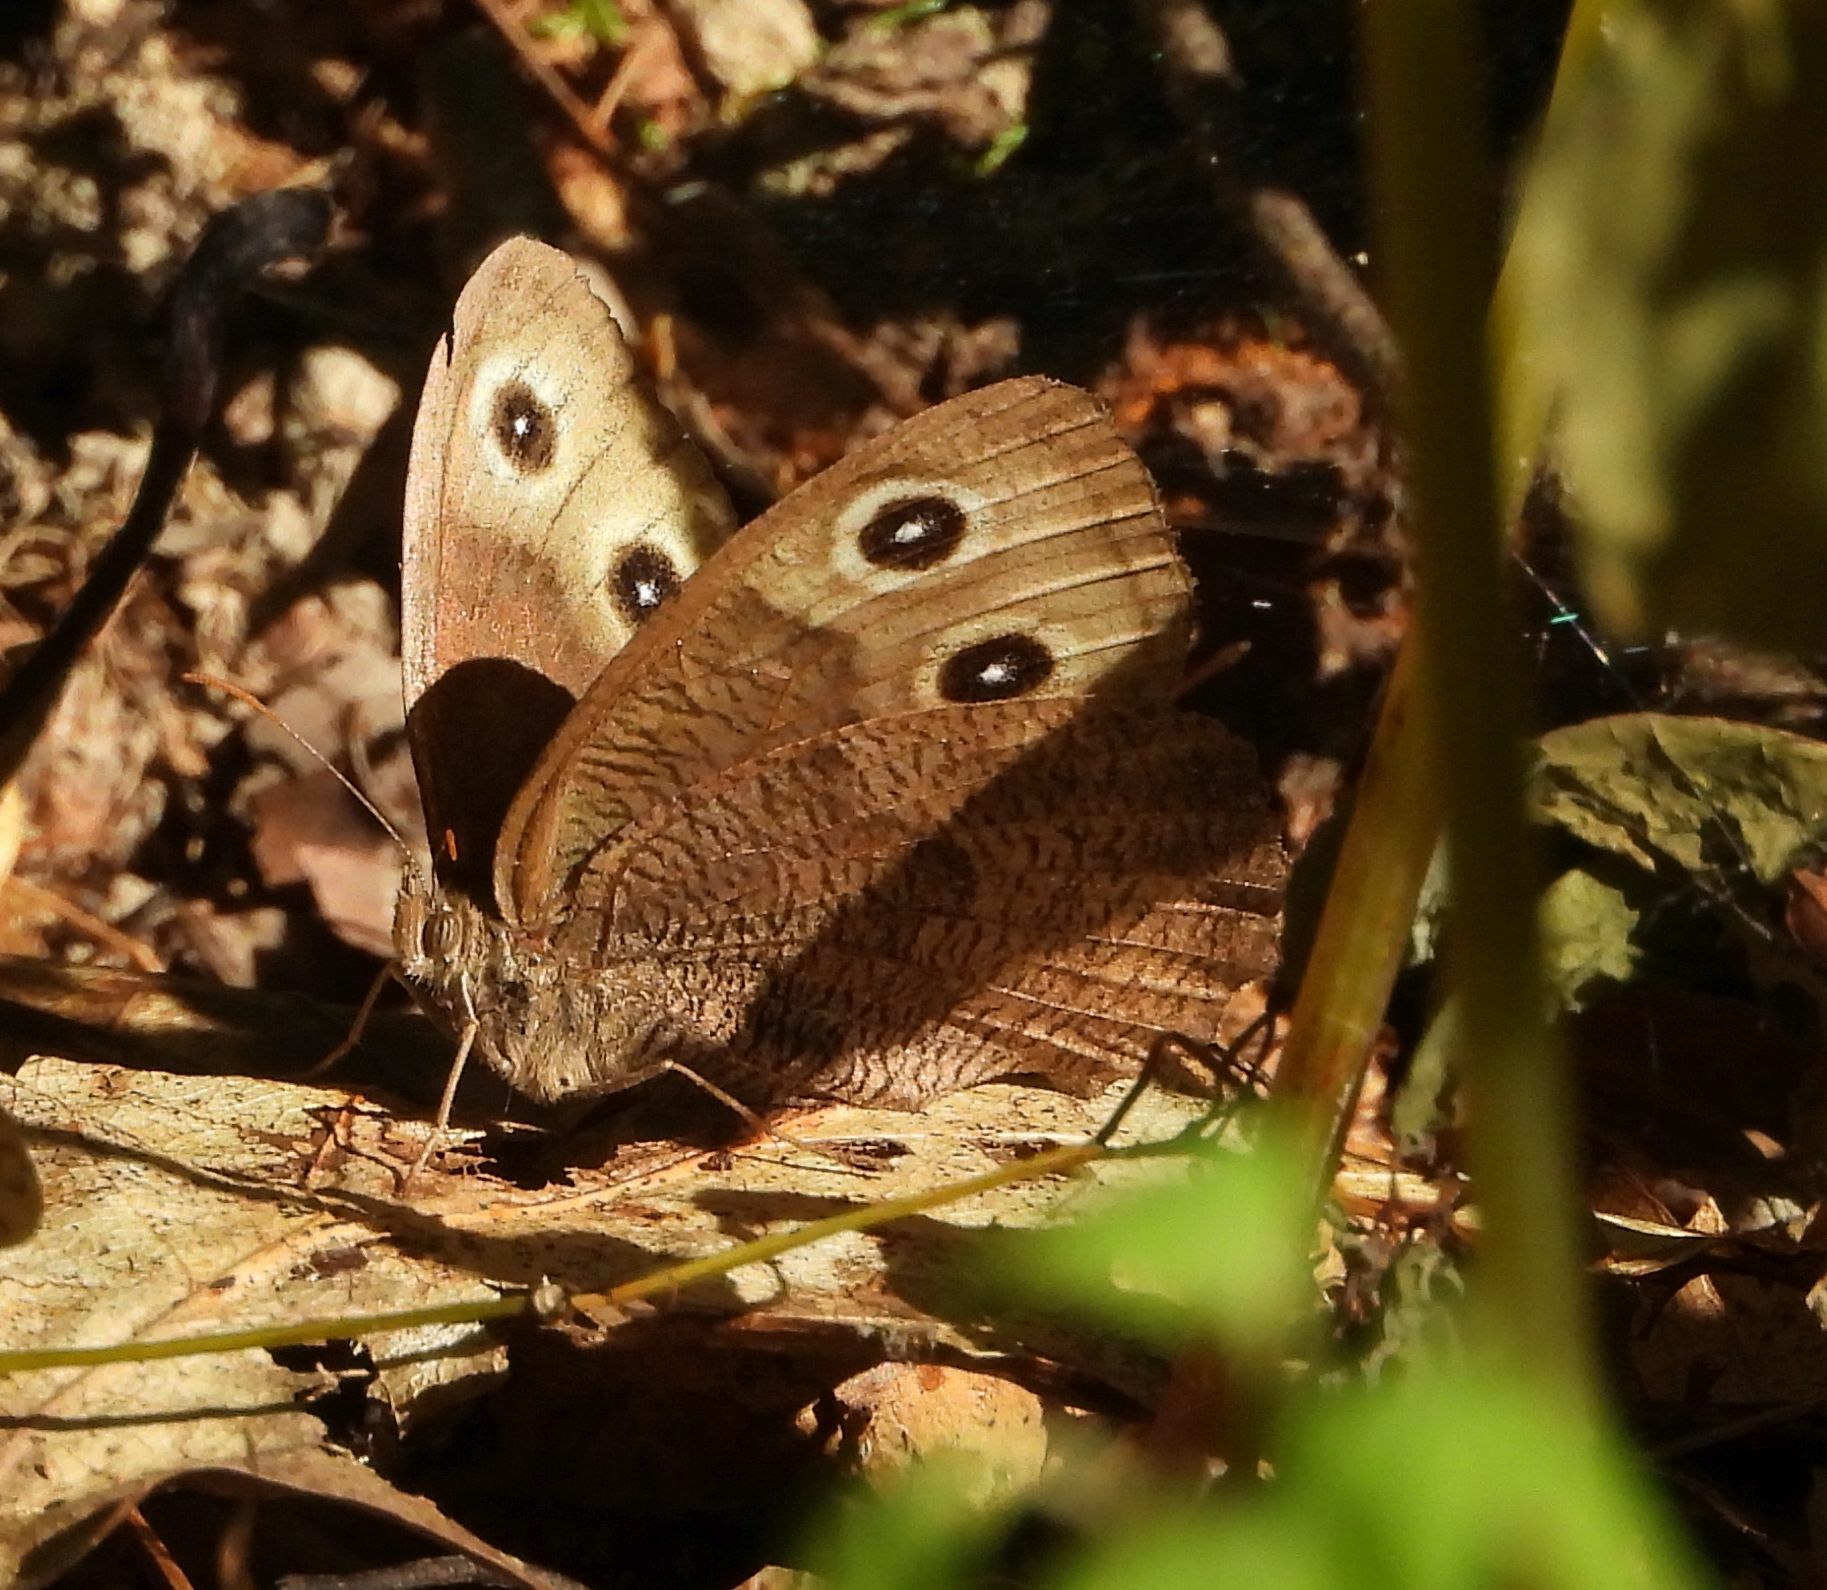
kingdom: Animalia
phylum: Arthropoda
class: Insecta
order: Lepidoptera
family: Nymphalidae
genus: Cercyonis
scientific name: Cercyonis pegala
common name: Common wood-nymph
